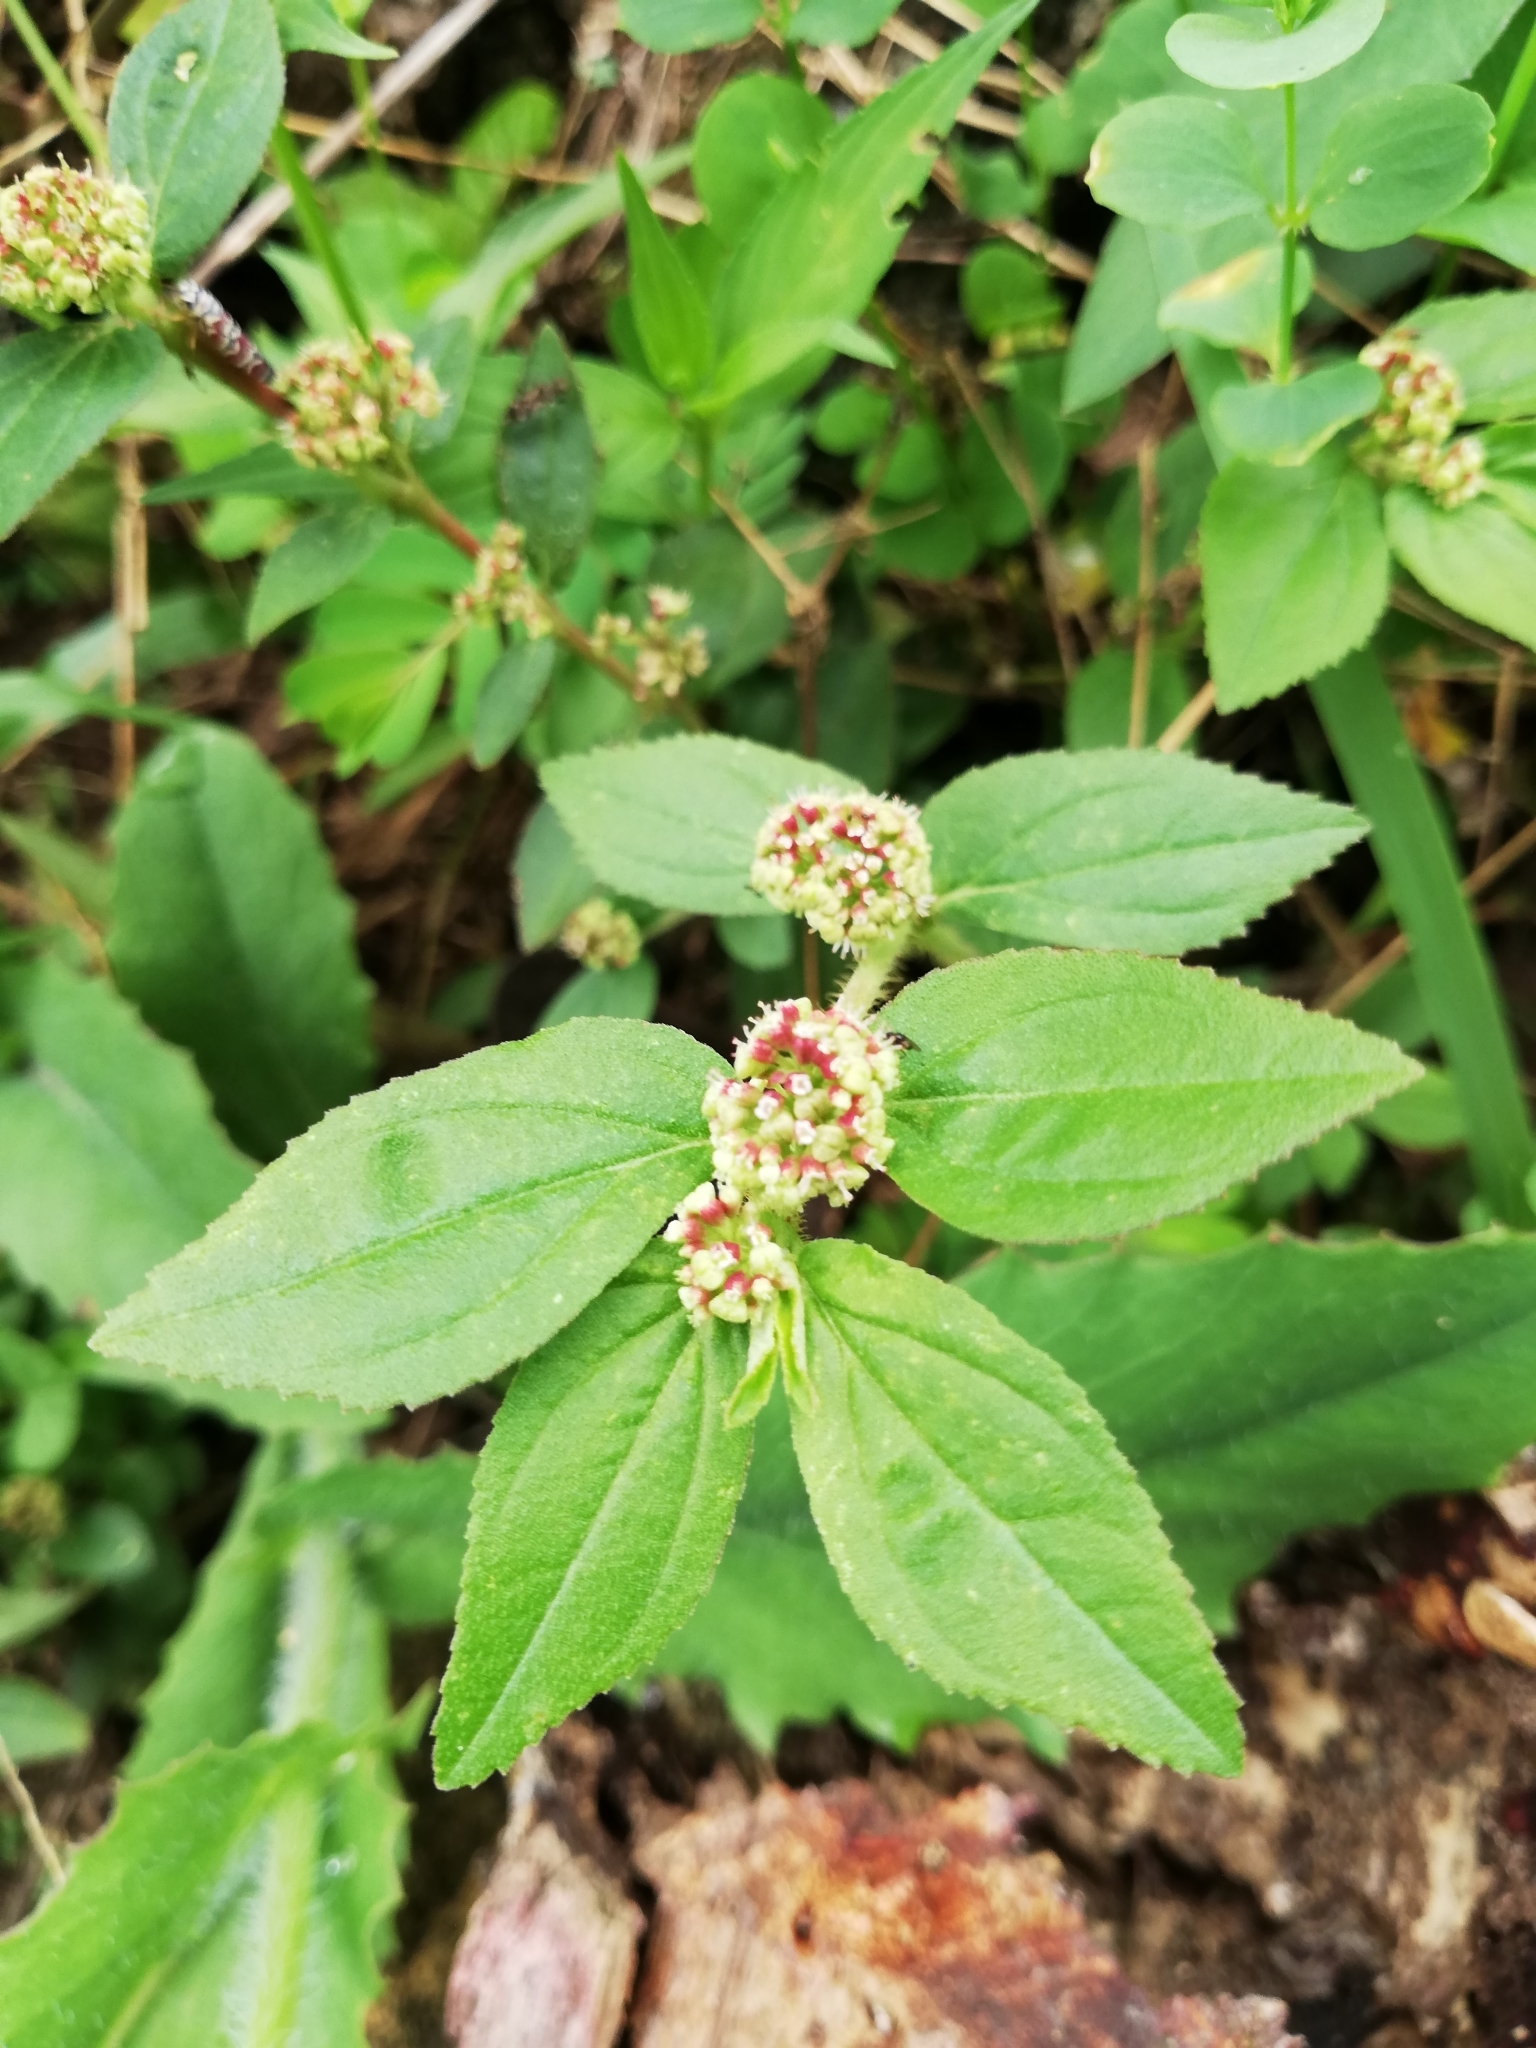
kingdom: Plantae
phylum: Tracheophyta
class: Magnoliopsida
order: Malpighiales
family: Euphorbiaceae
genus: Euphorbia
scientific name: Euphorbia hirta
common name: Pillpod sandmat
